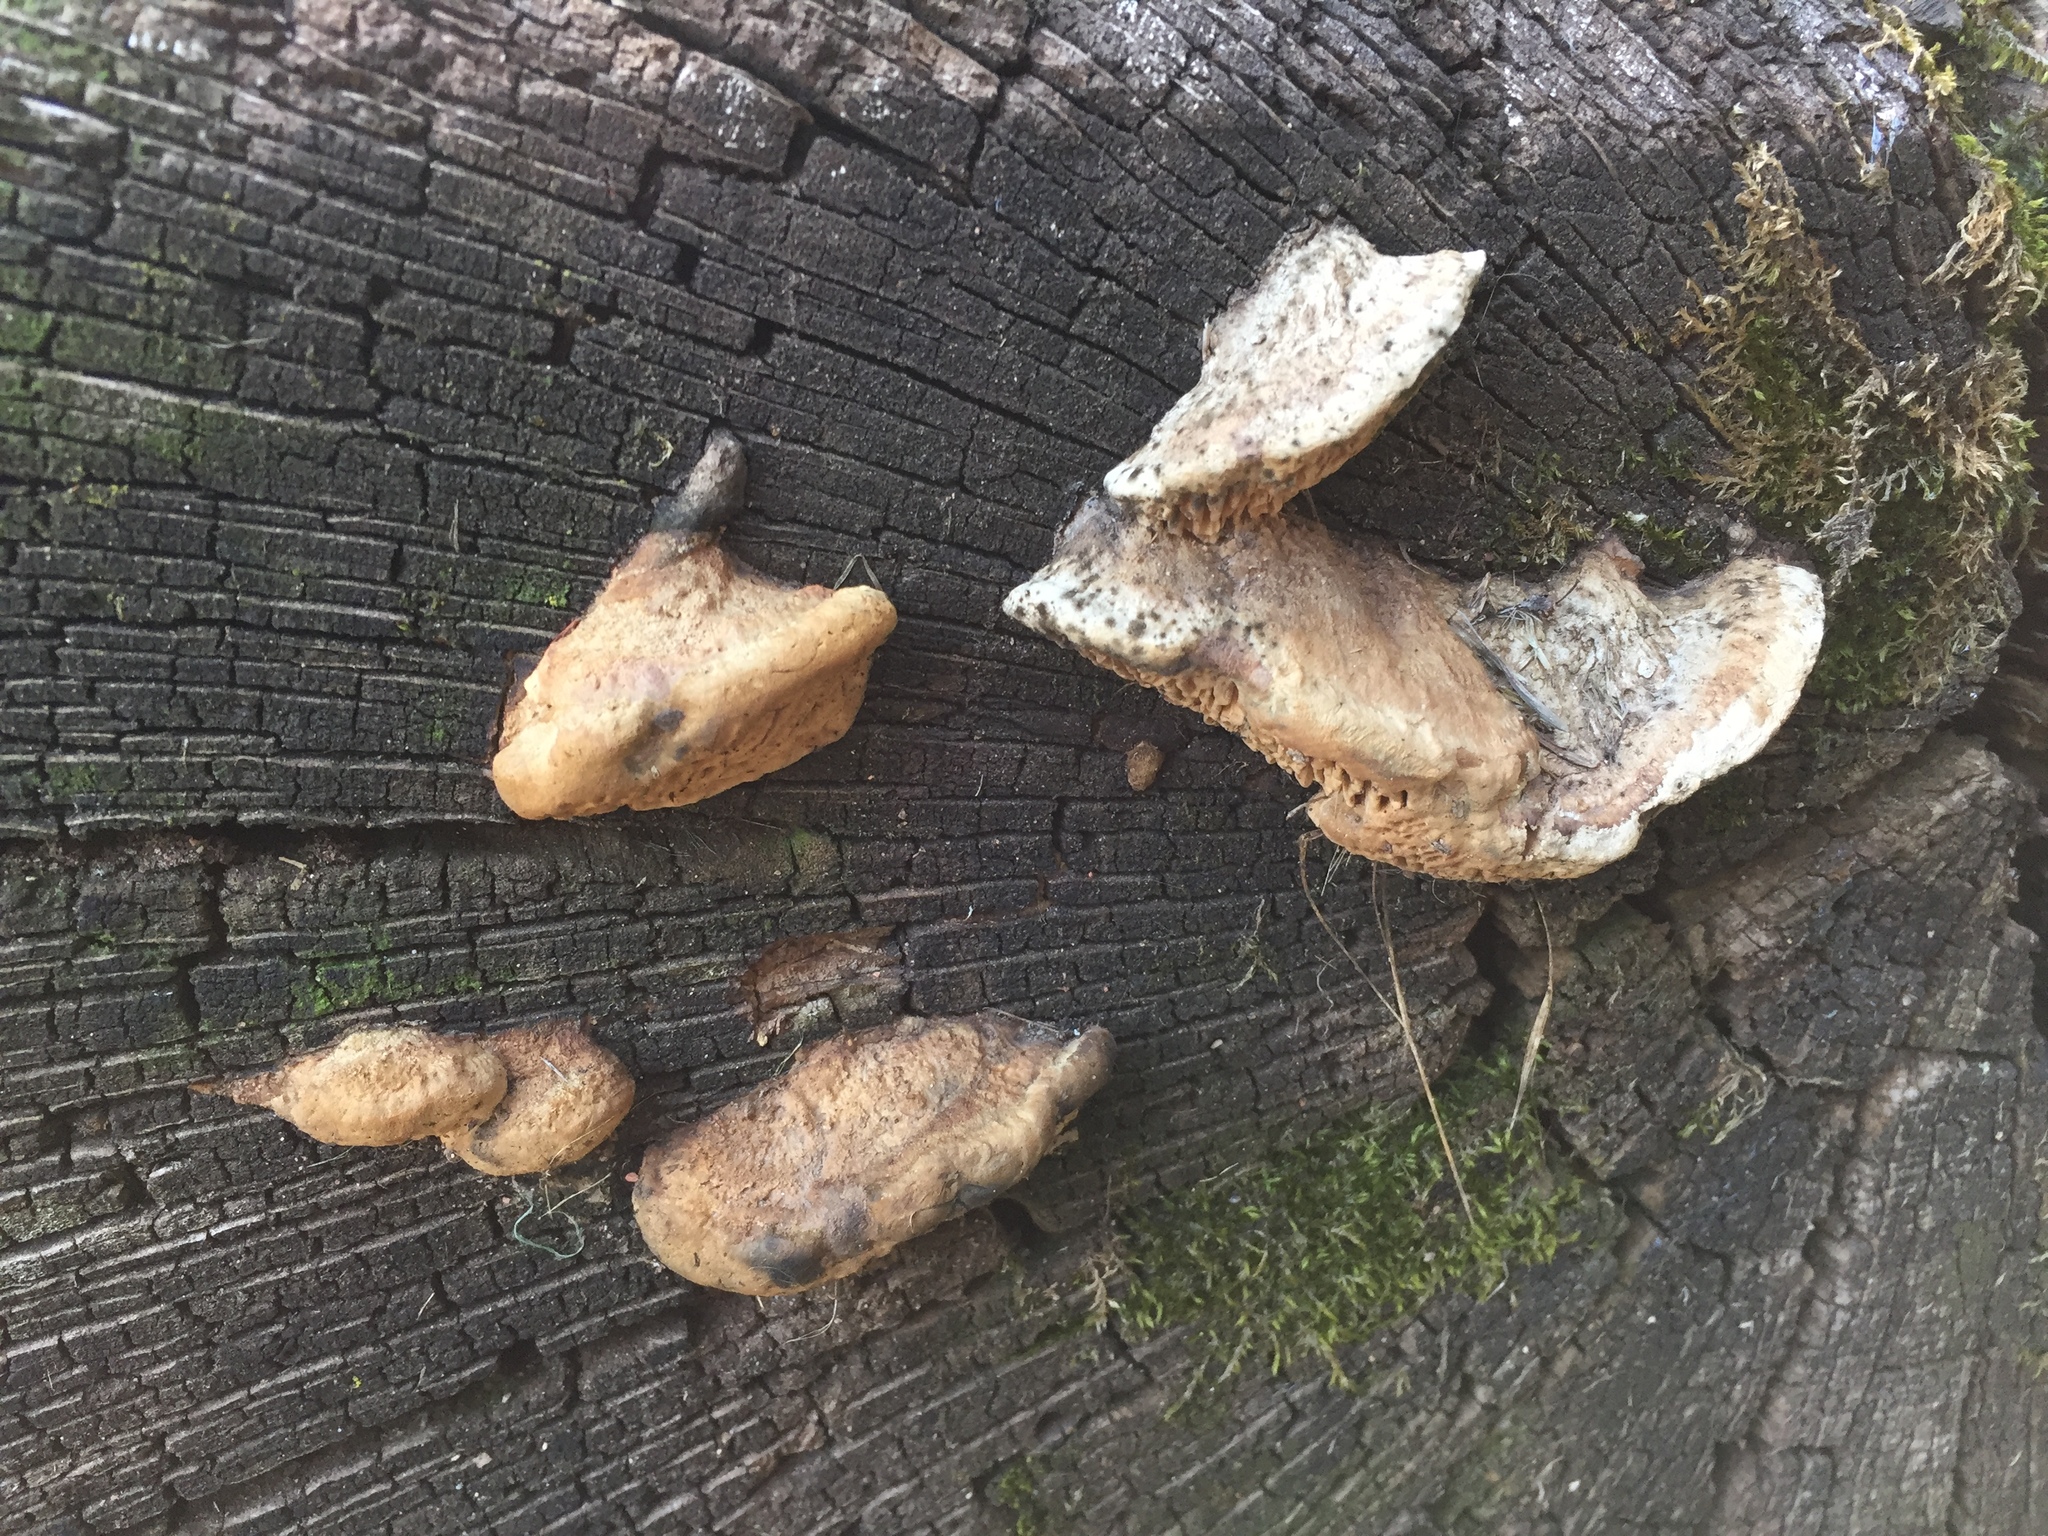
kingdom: Fungi
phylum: Basidiomycota
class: Agaricomycetes
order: Polyporales
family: Fomitopsidaceae
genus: Fomitopsis
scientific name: Fomitopsis
